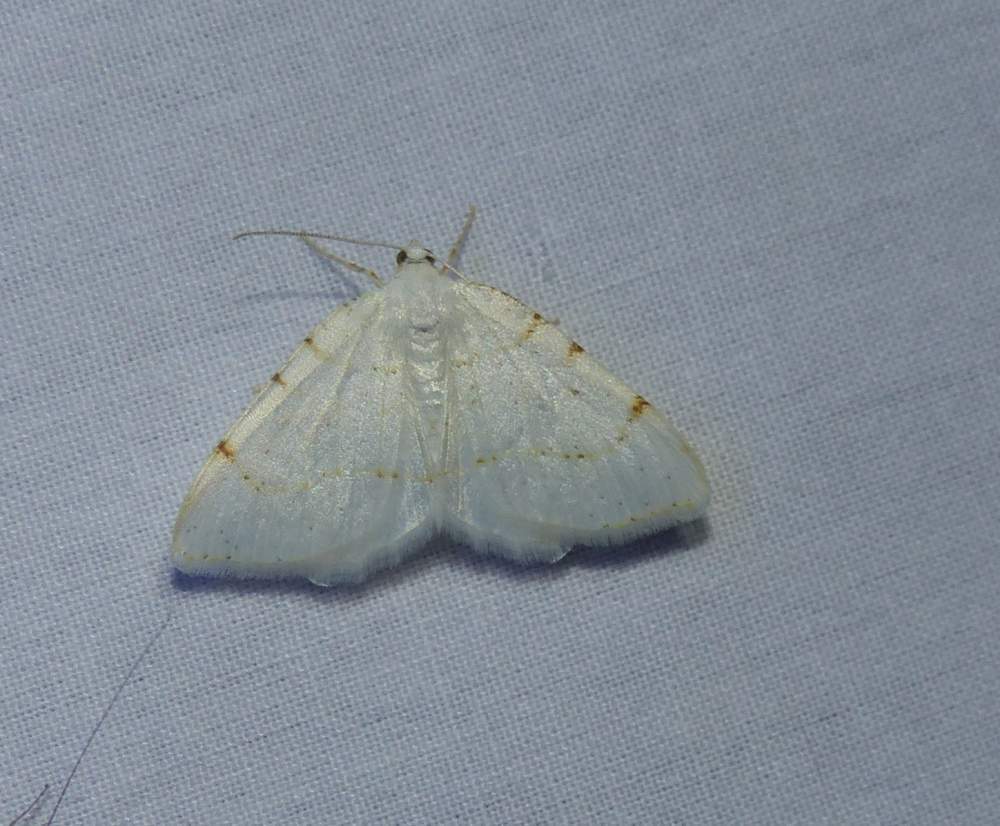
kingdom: Animalia
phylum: Arthropoda
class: Insecta
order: Lepidoptera
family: Geometridae
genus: Macaria
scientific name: Macaria pustularia
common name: Lesser maple spanworm moth
